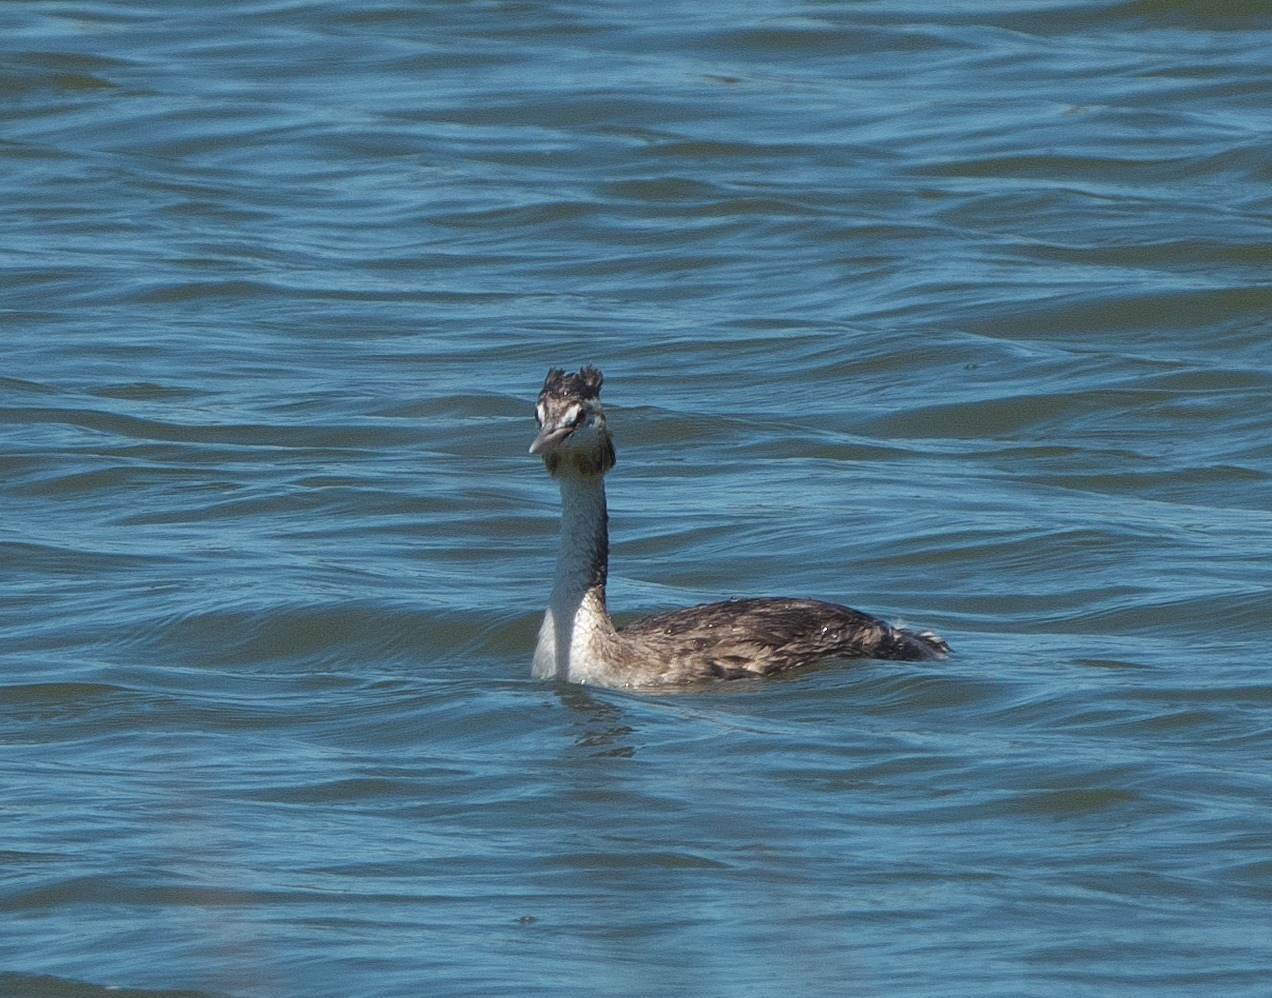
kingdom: Animalia
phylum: Chordata
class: Aves
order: Podicipediformes
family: Podicipedidae
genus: Podiceps
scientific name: Podiceps cristatus
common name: Great crested grebe
